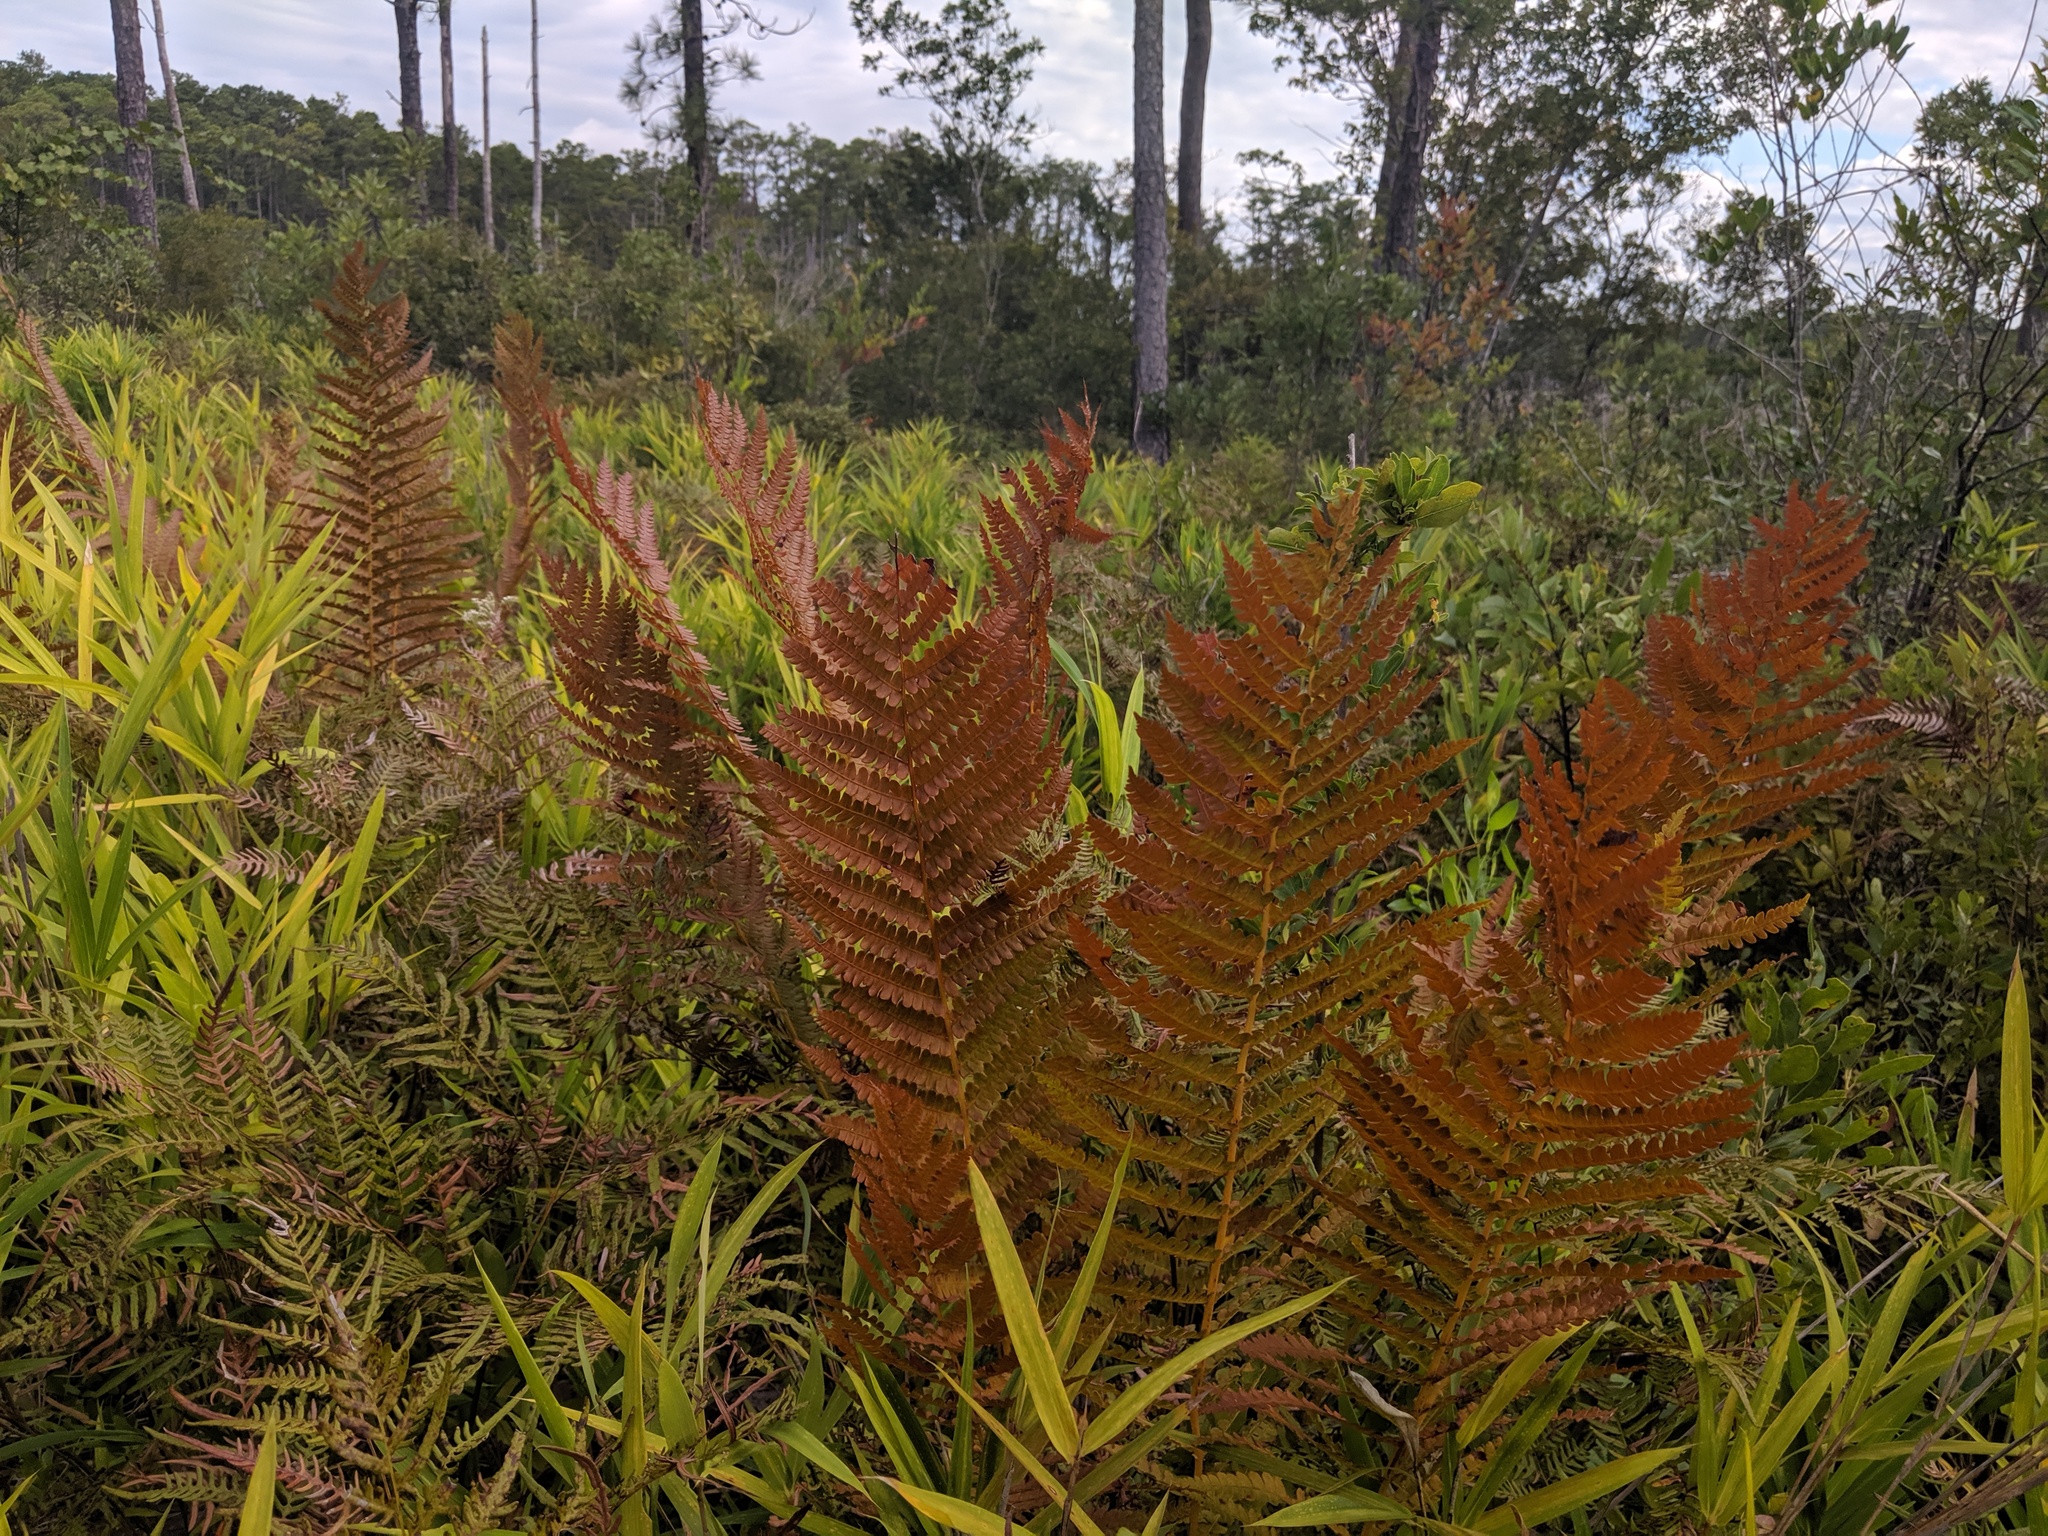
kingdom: Plantae
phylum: Tracheophyta
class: Polypodiopsida
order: Osmundales
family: Osmundaceae
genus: Osmundastrum
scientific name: Osmundastrum cinnamomeum
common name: Cinnamon fern
